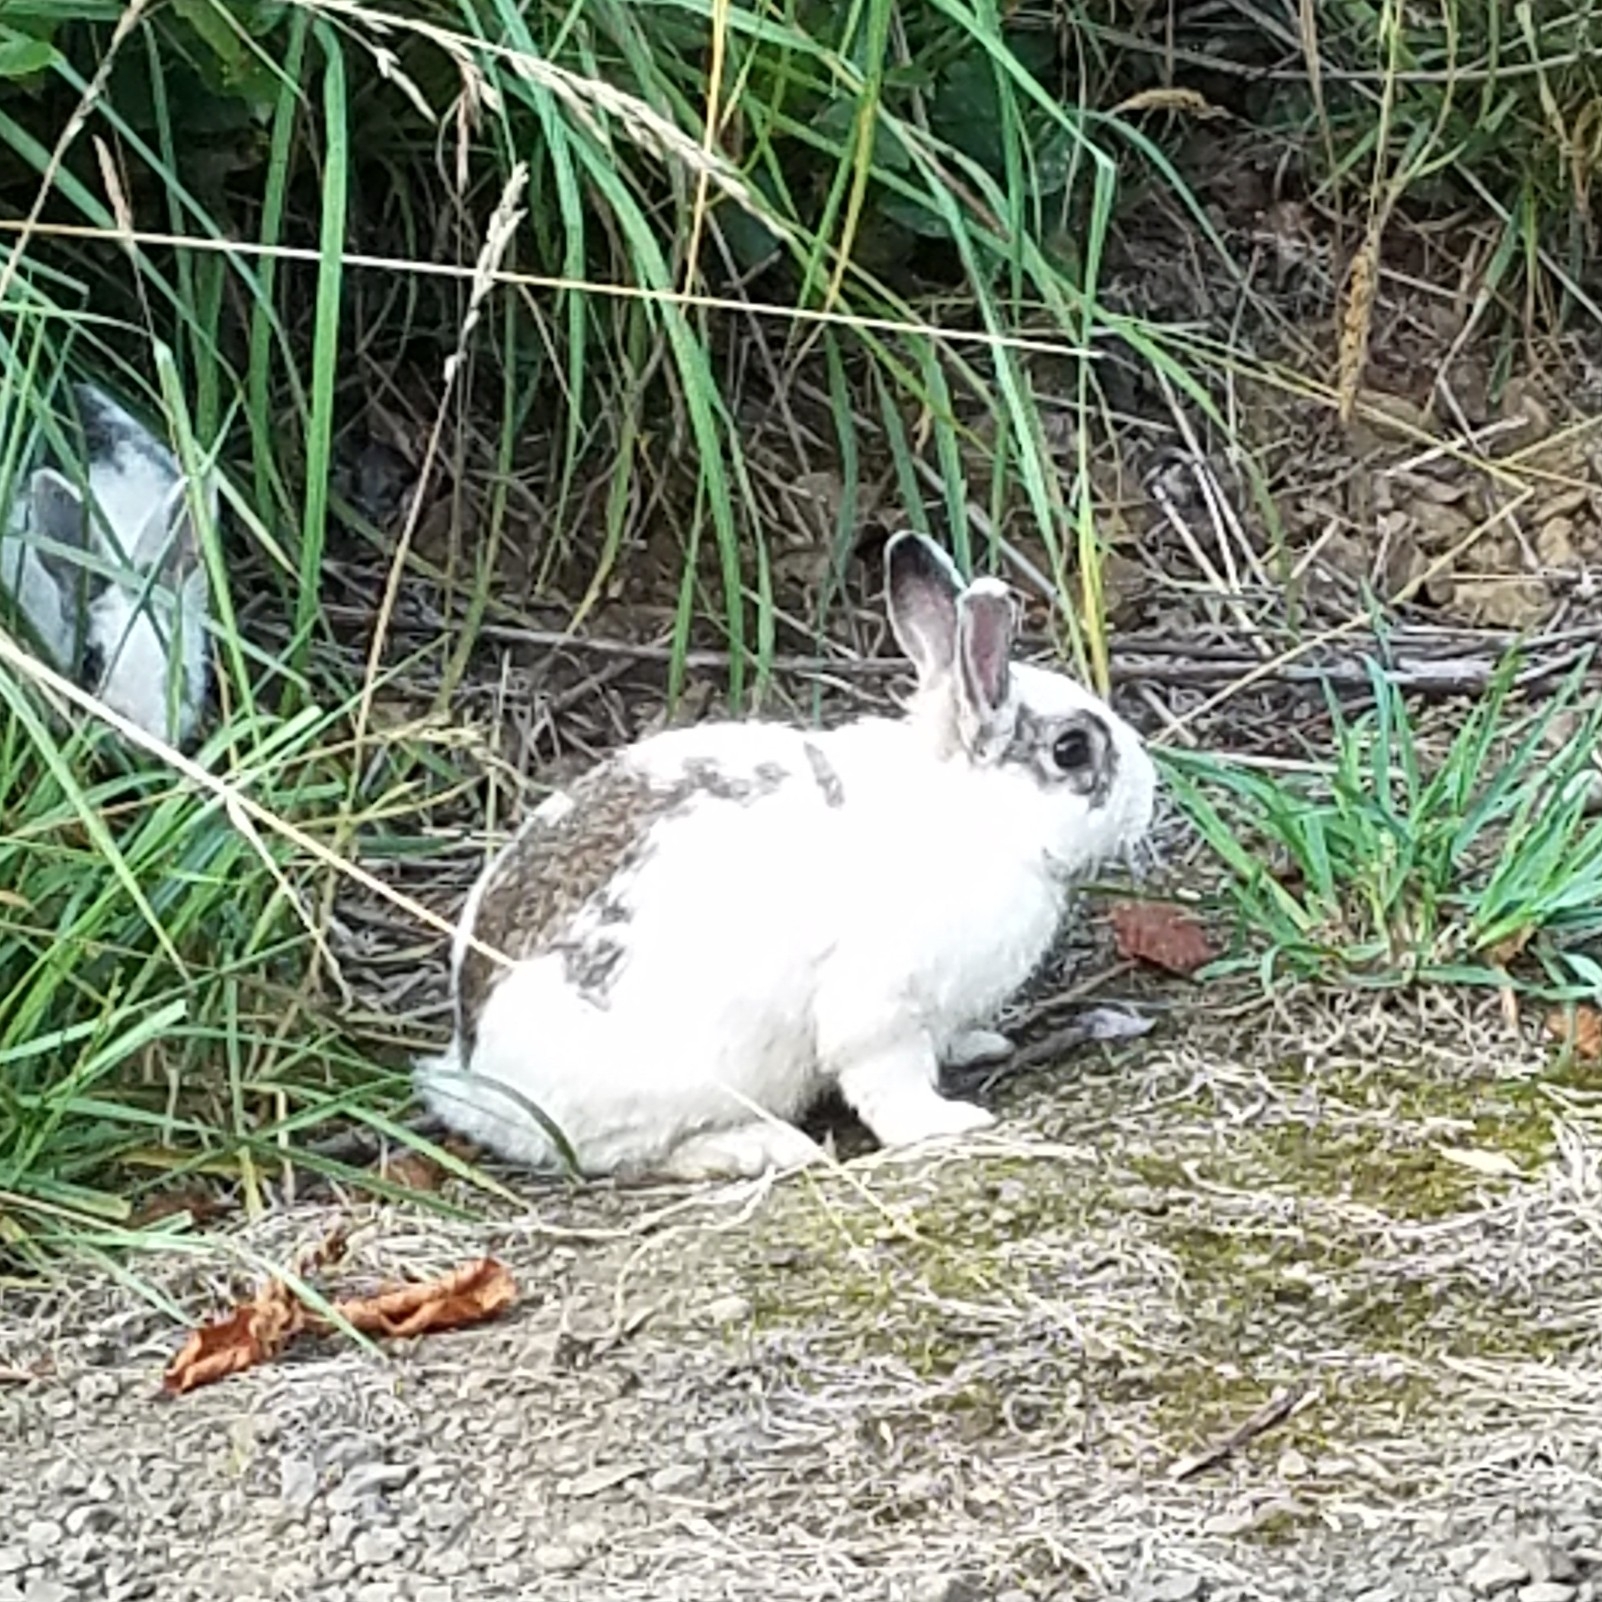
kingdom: Animalia
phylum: Chordata
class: Mammalia
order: Lagomorpha
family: Leporidae
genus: Oryctolagus
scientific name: Oryctolagus cuniculus
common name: European rabbit
